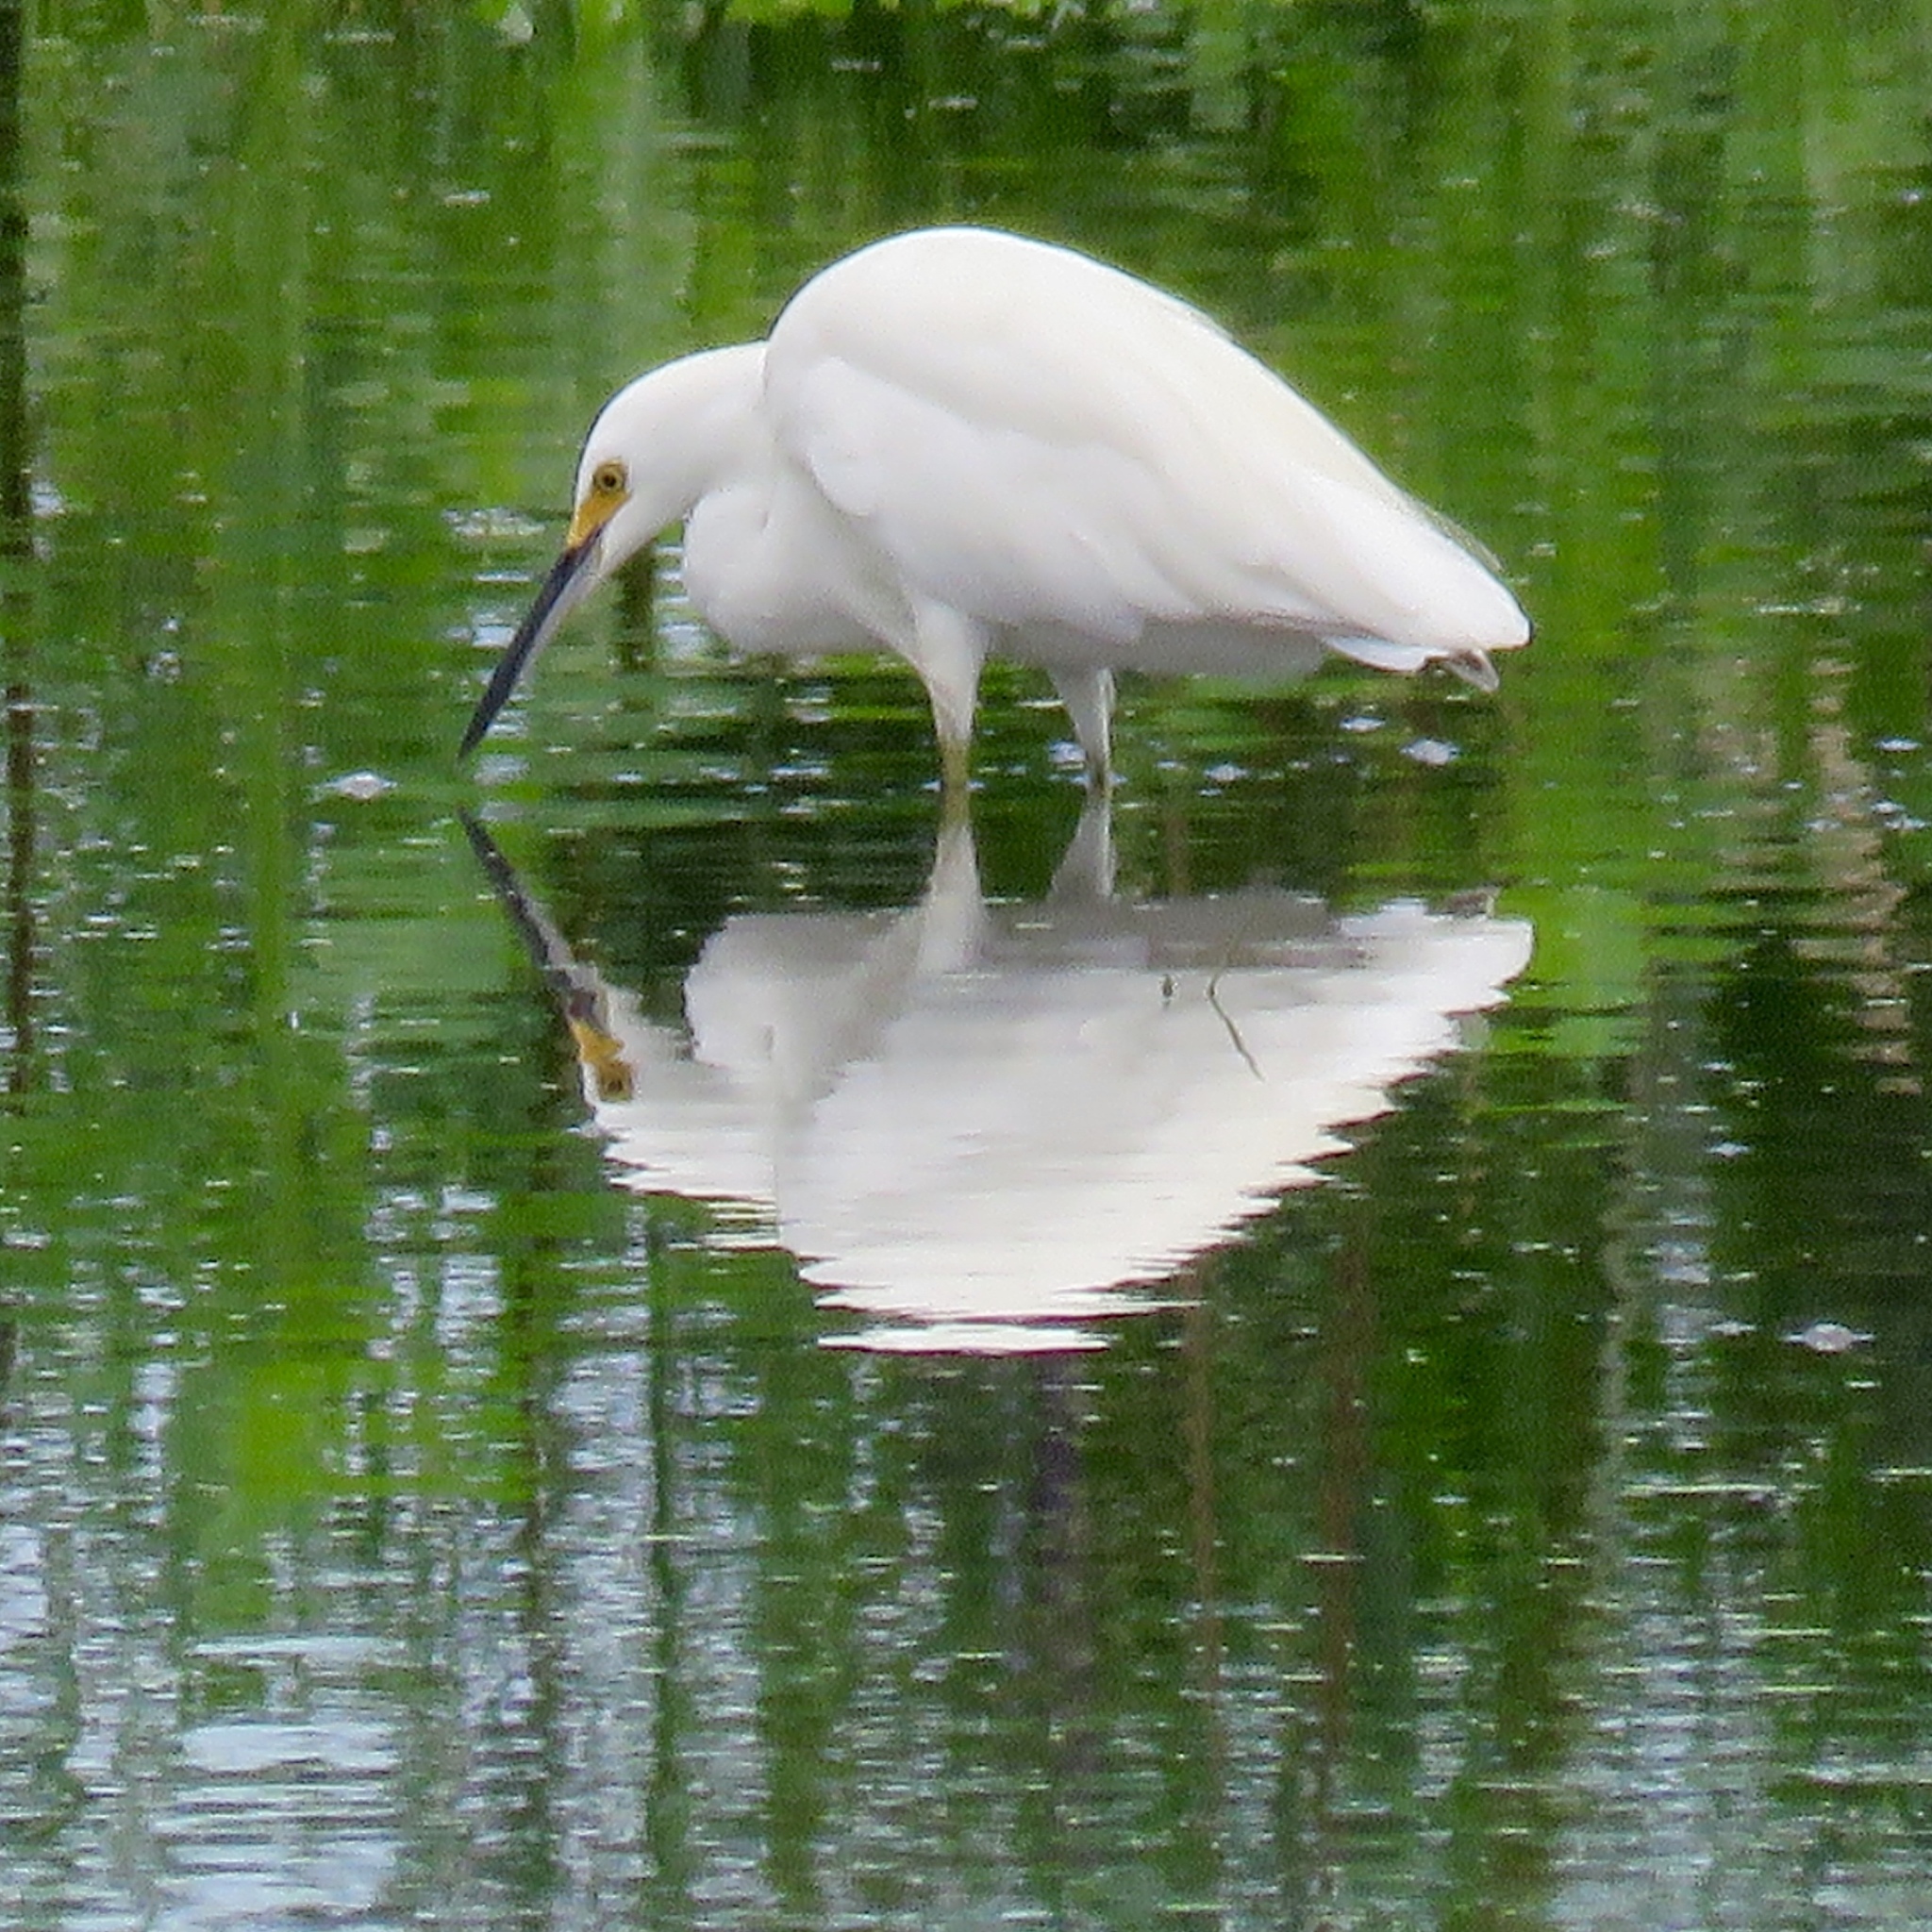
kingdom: Animalia
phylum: Chordata
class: Aves
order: Pelecaniformes
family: Ardeidae
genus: Egretta
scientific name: Egretta thula
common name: Snowy egret
